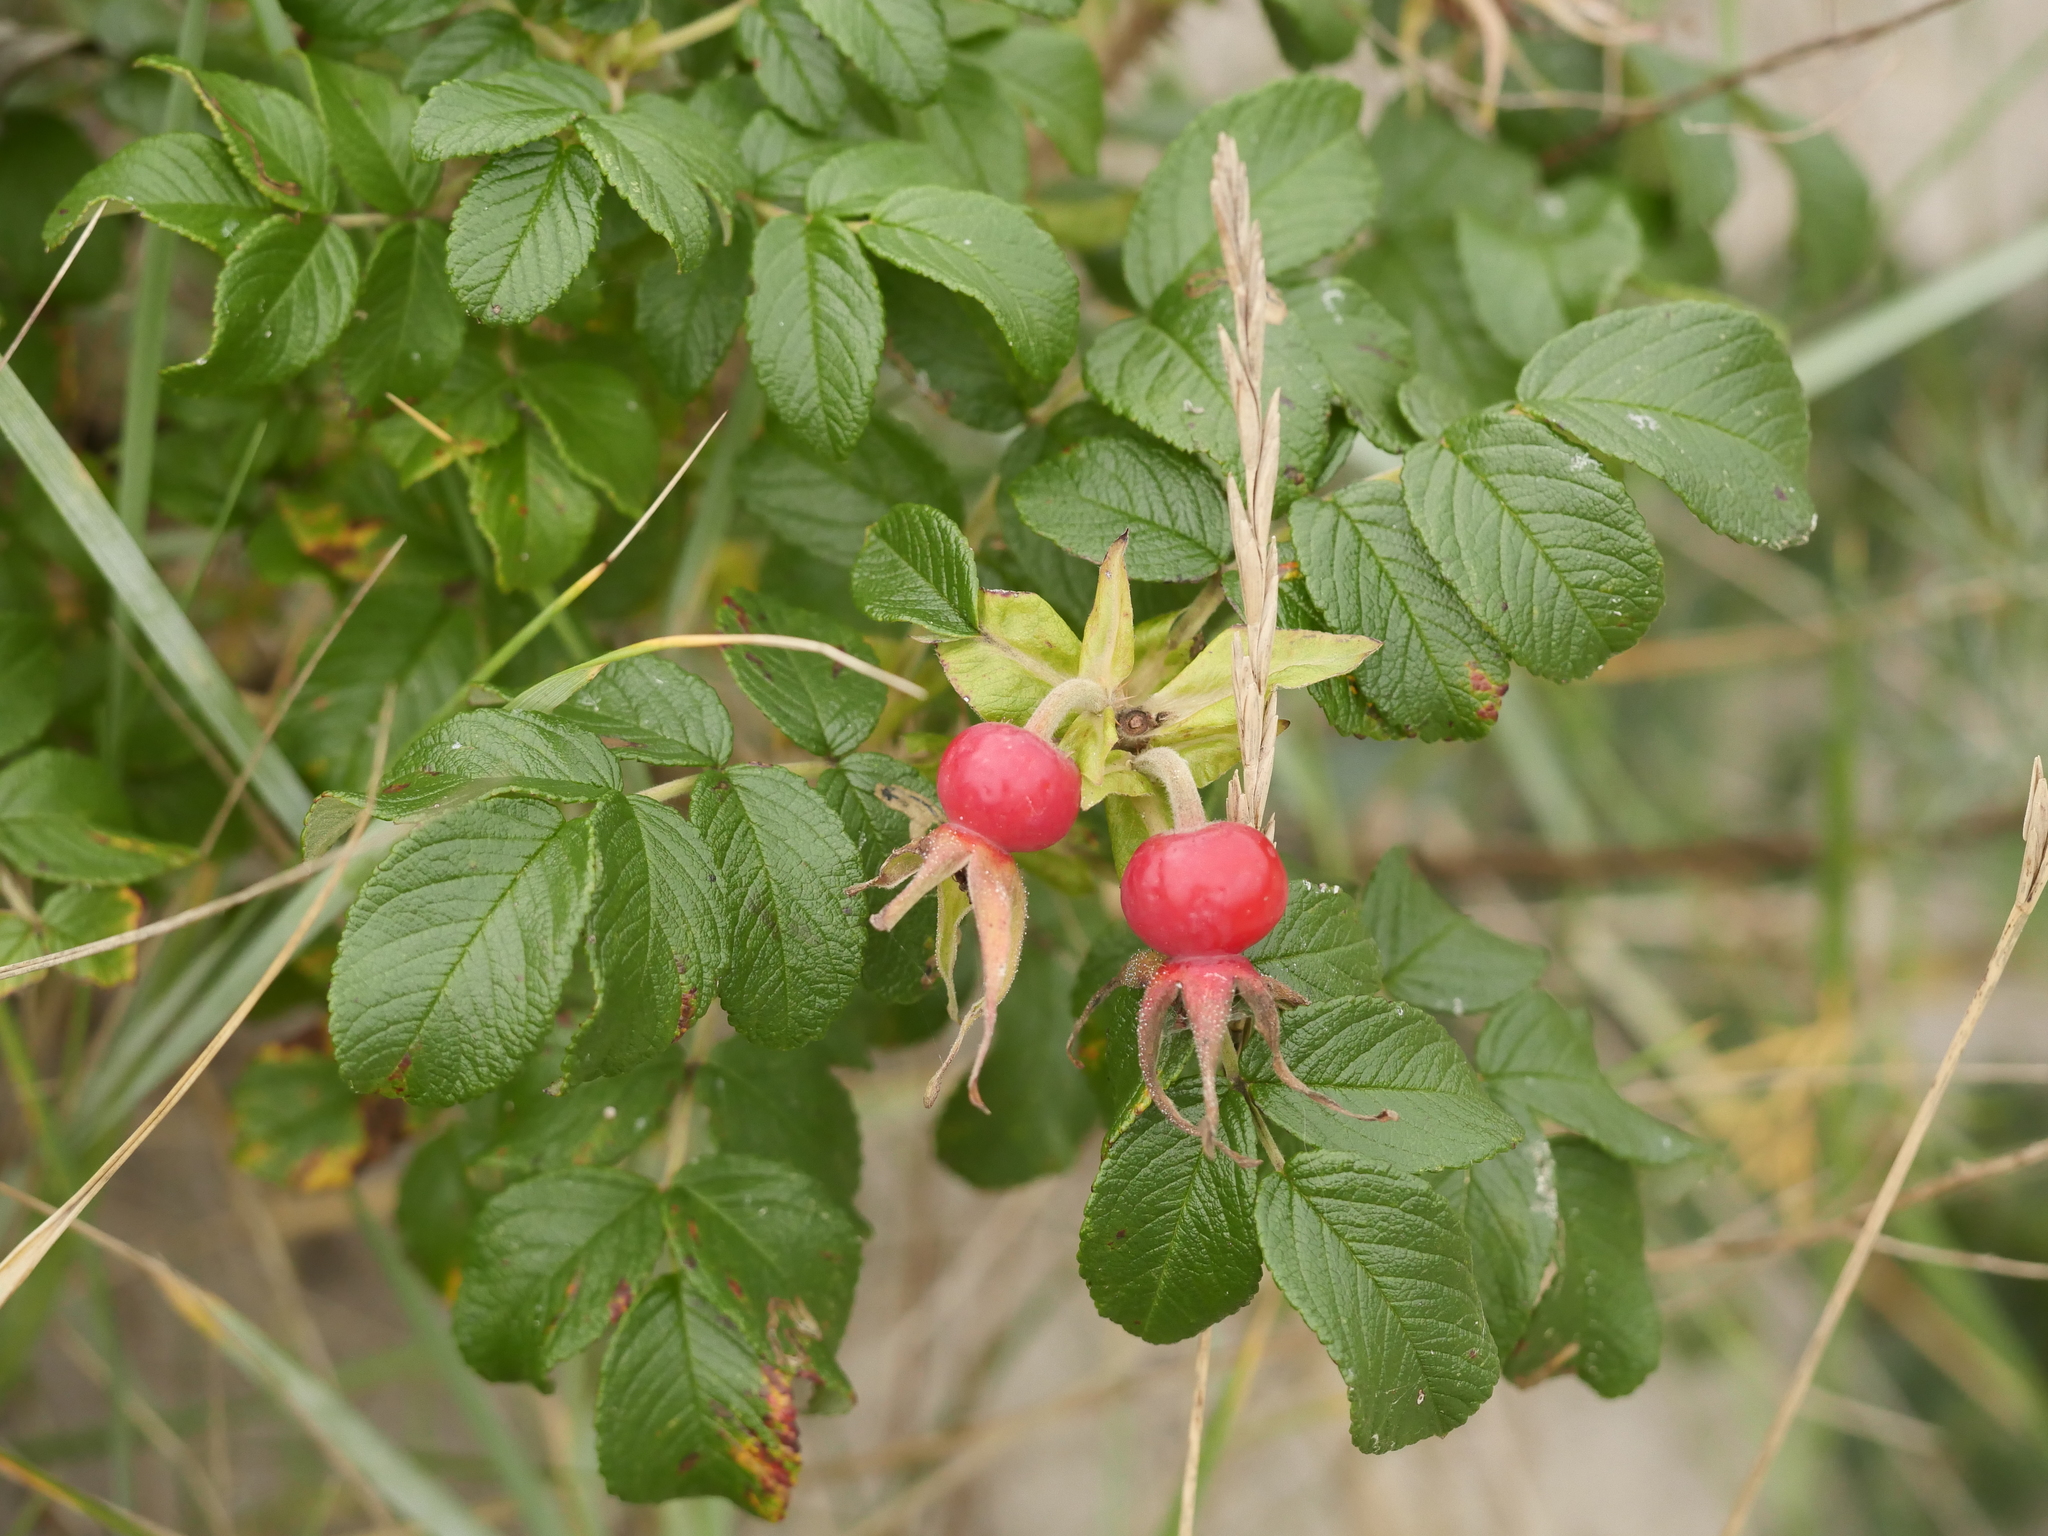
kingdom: Plantae
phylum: Tracheophyta
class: Magnoliopsida
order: Rosales
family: Rosaceae
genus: Rosa
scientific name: Rosa rugosa
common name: Japanese rose
